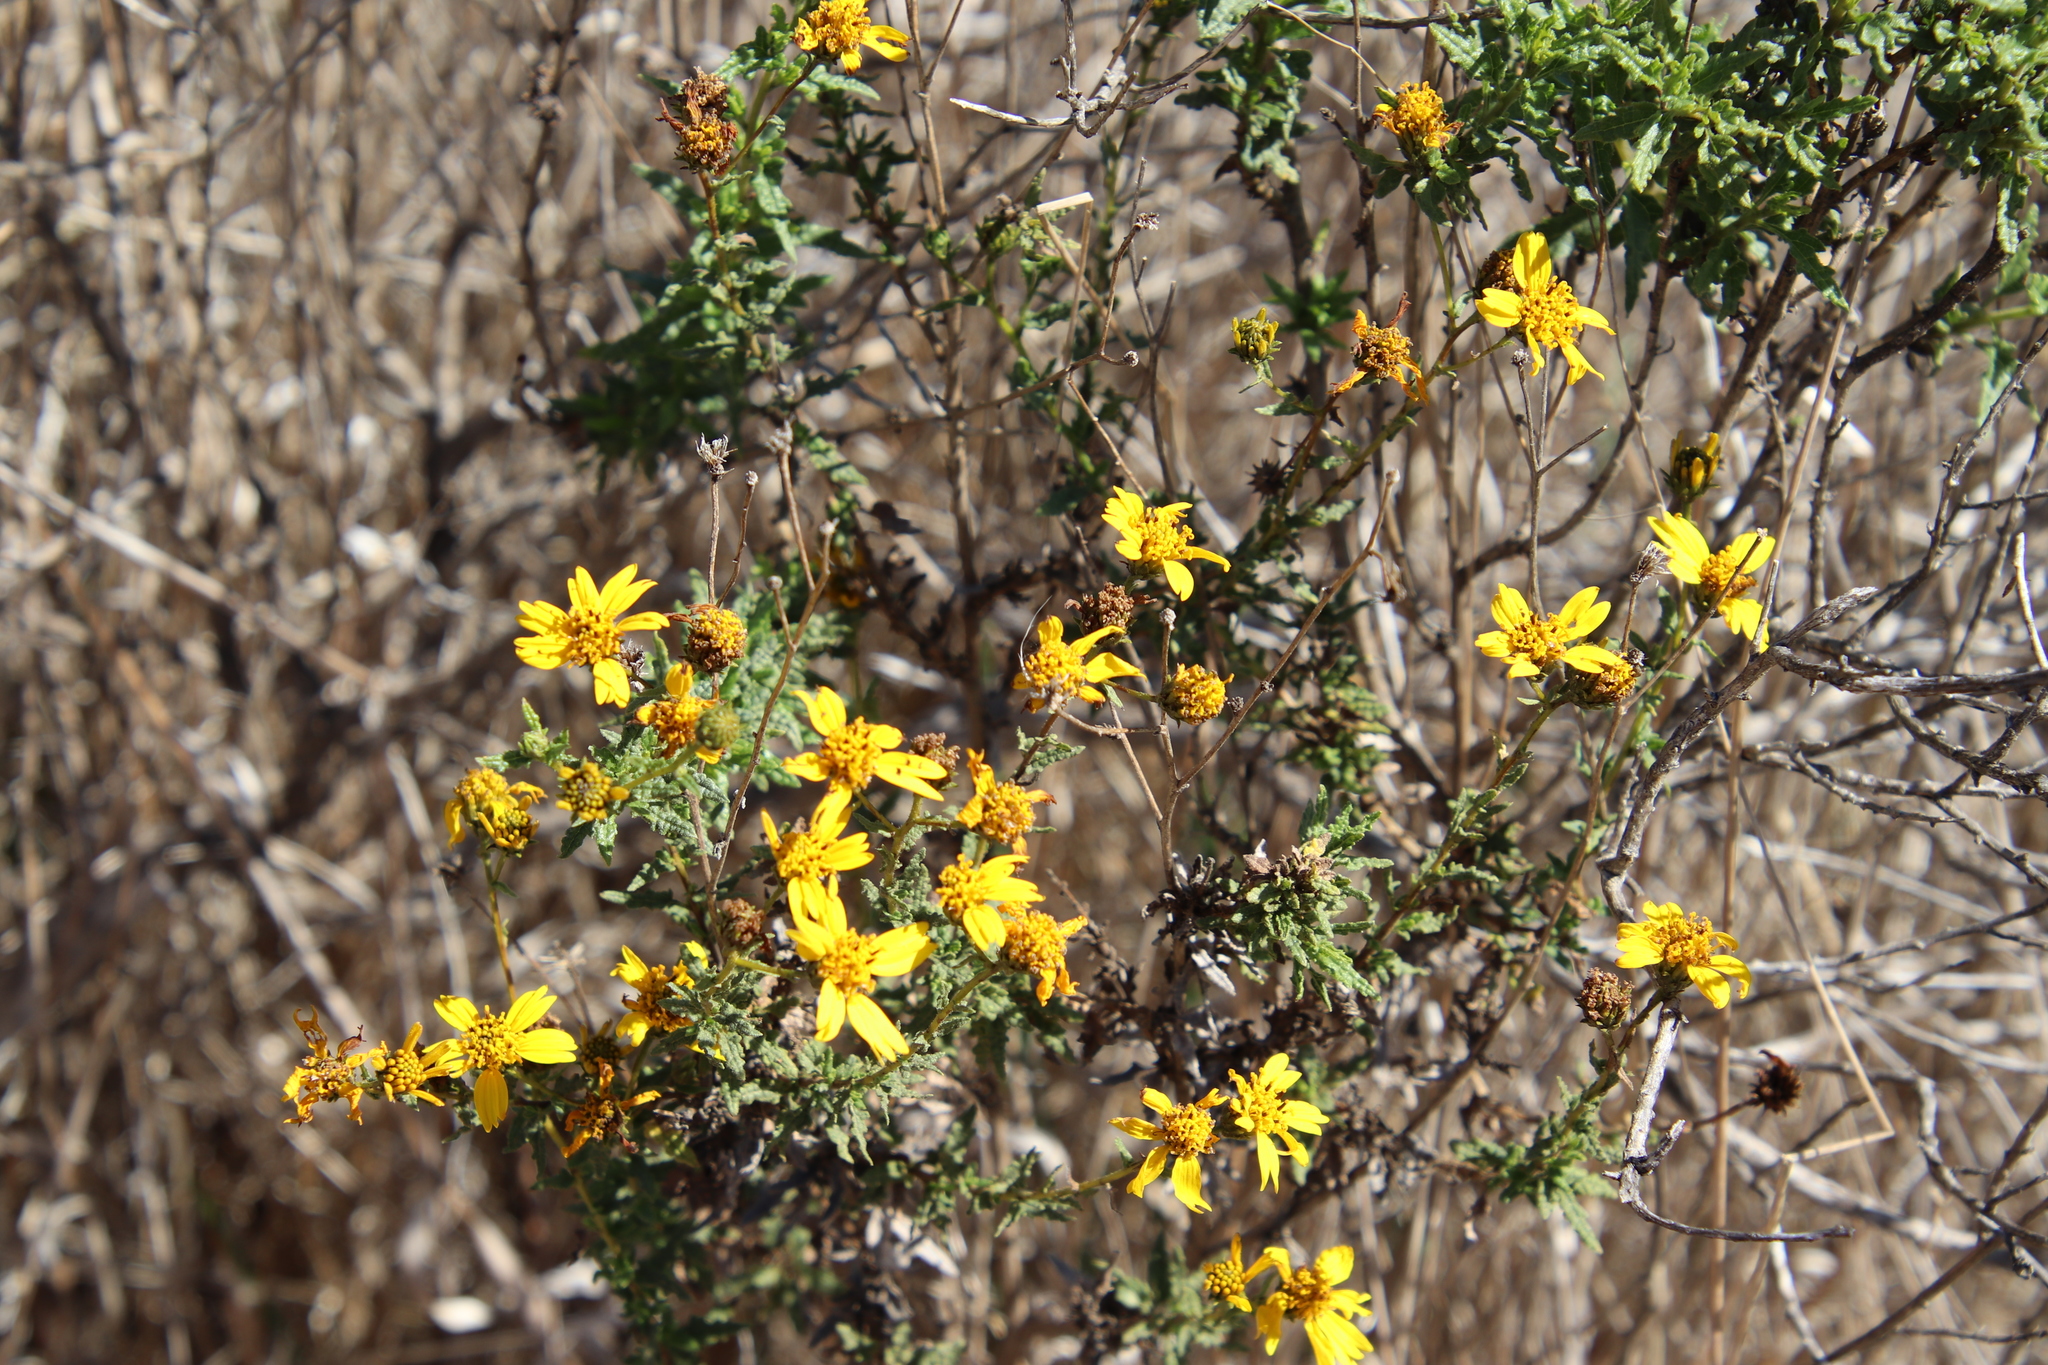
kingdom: Plantae
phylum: Tracheophyta
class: Magnoliopsida
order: Asterales
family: Asteraceae
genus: Bahiopsis
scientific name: Bahiopsis laciniata
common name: San diego county viguiera
